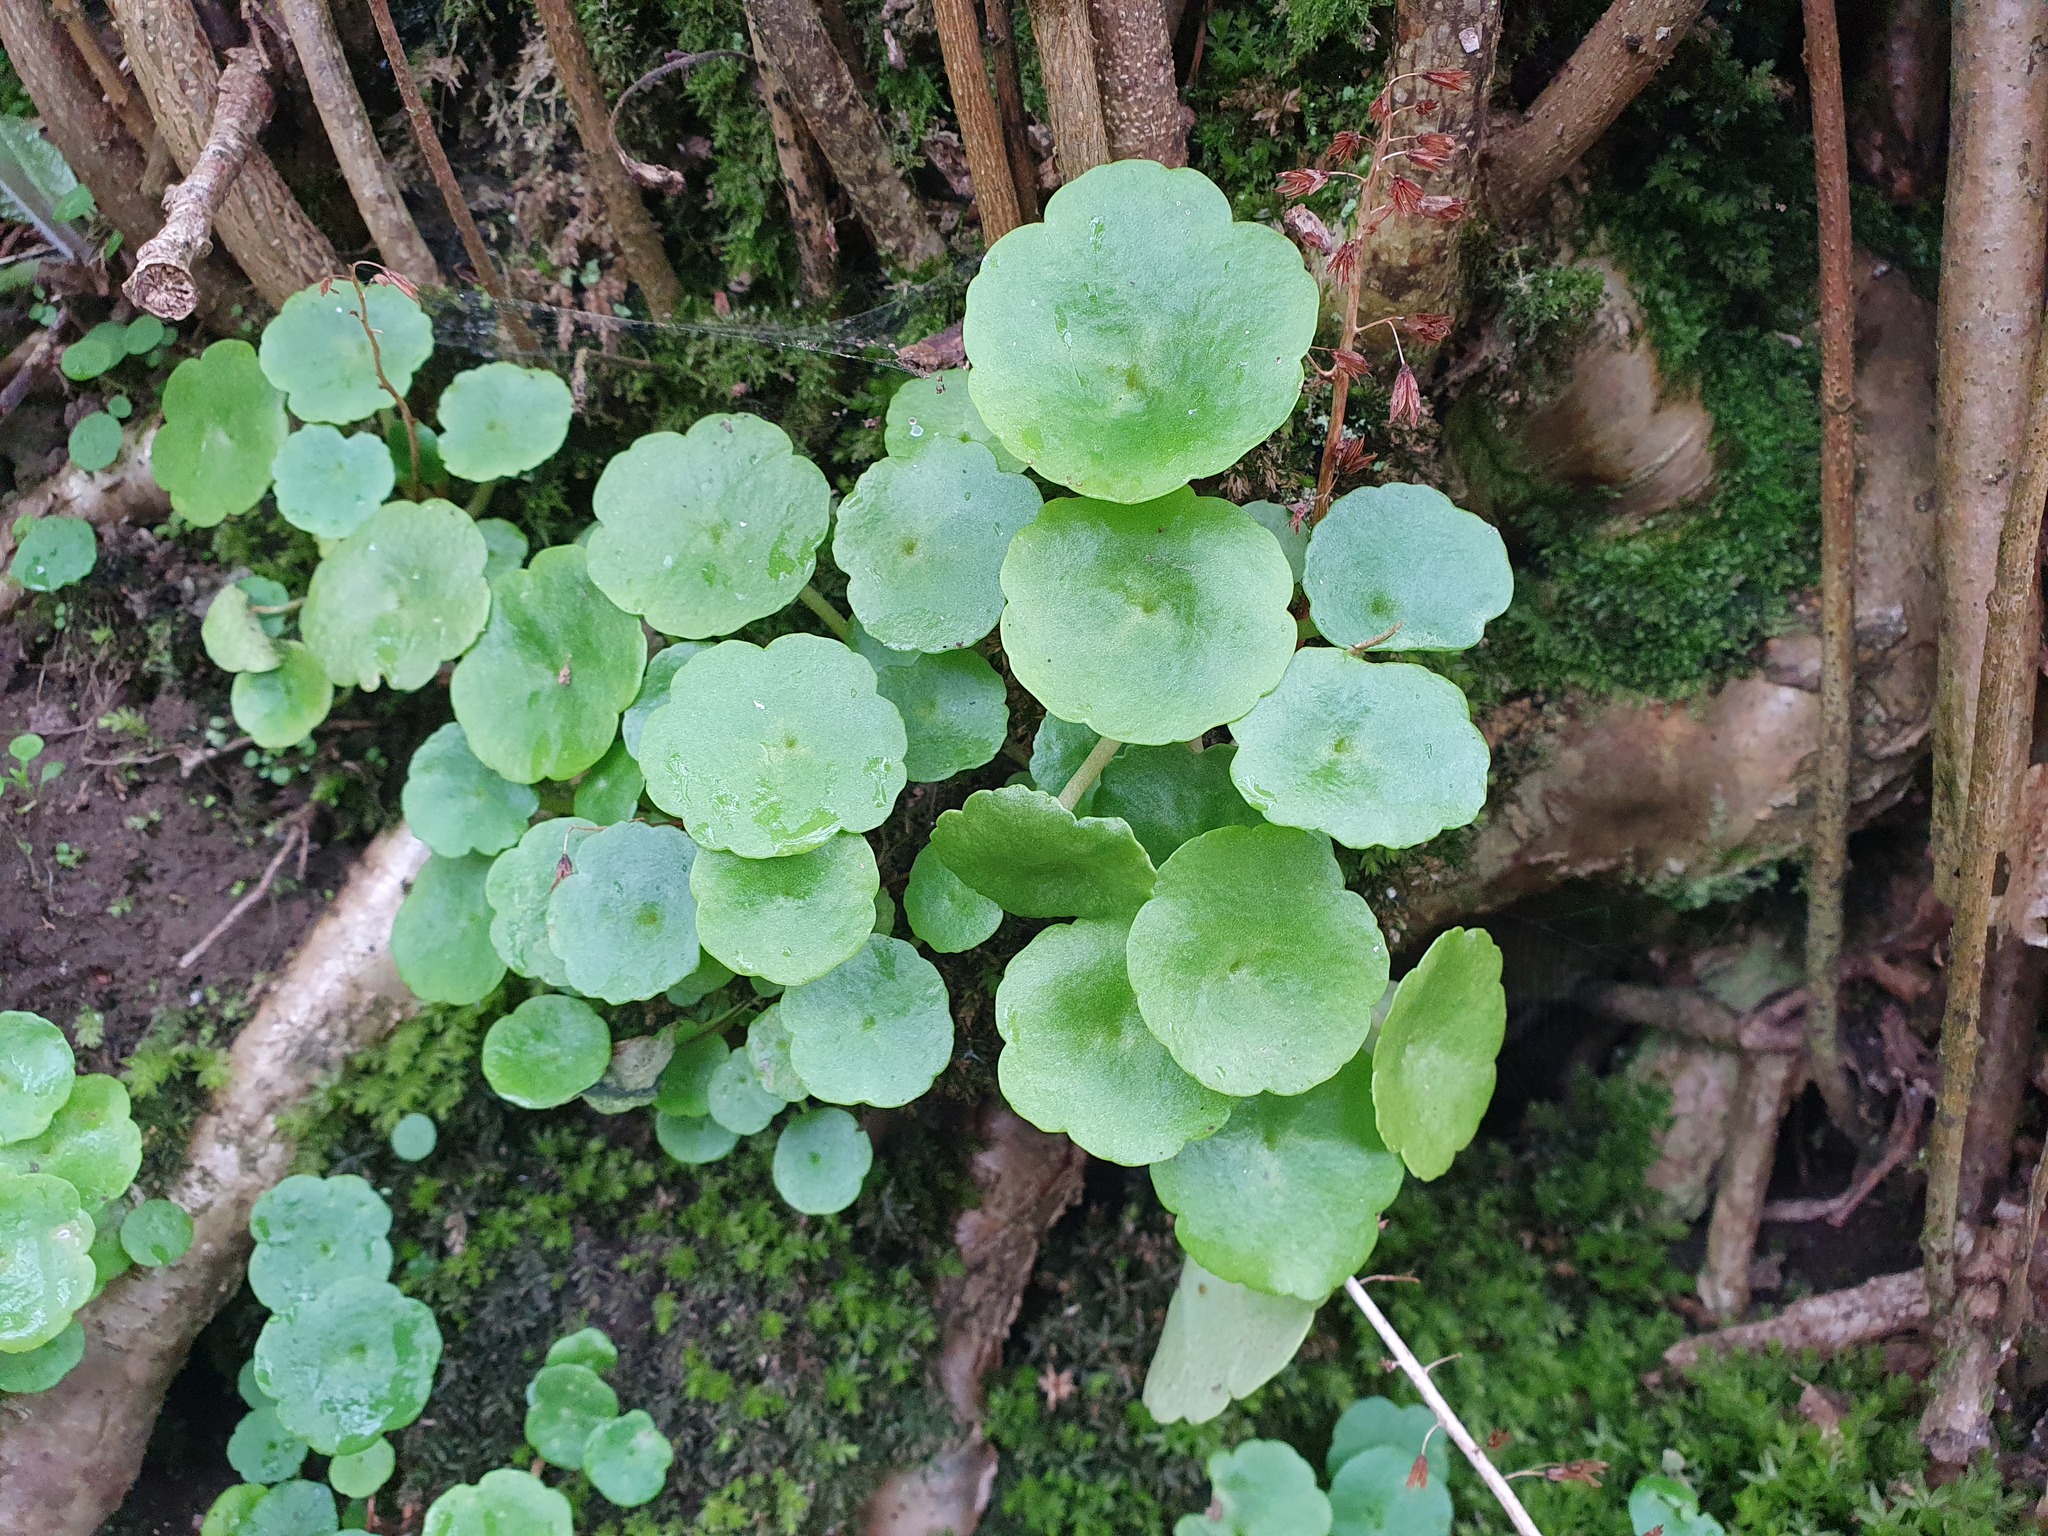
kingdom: Plantae
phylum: Tracheophyta
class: Magnoliopsida
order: Saxifragales
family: Crassulaceae
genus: Umbilicus
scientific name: Umbilicus rupestris
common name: Navelwort
